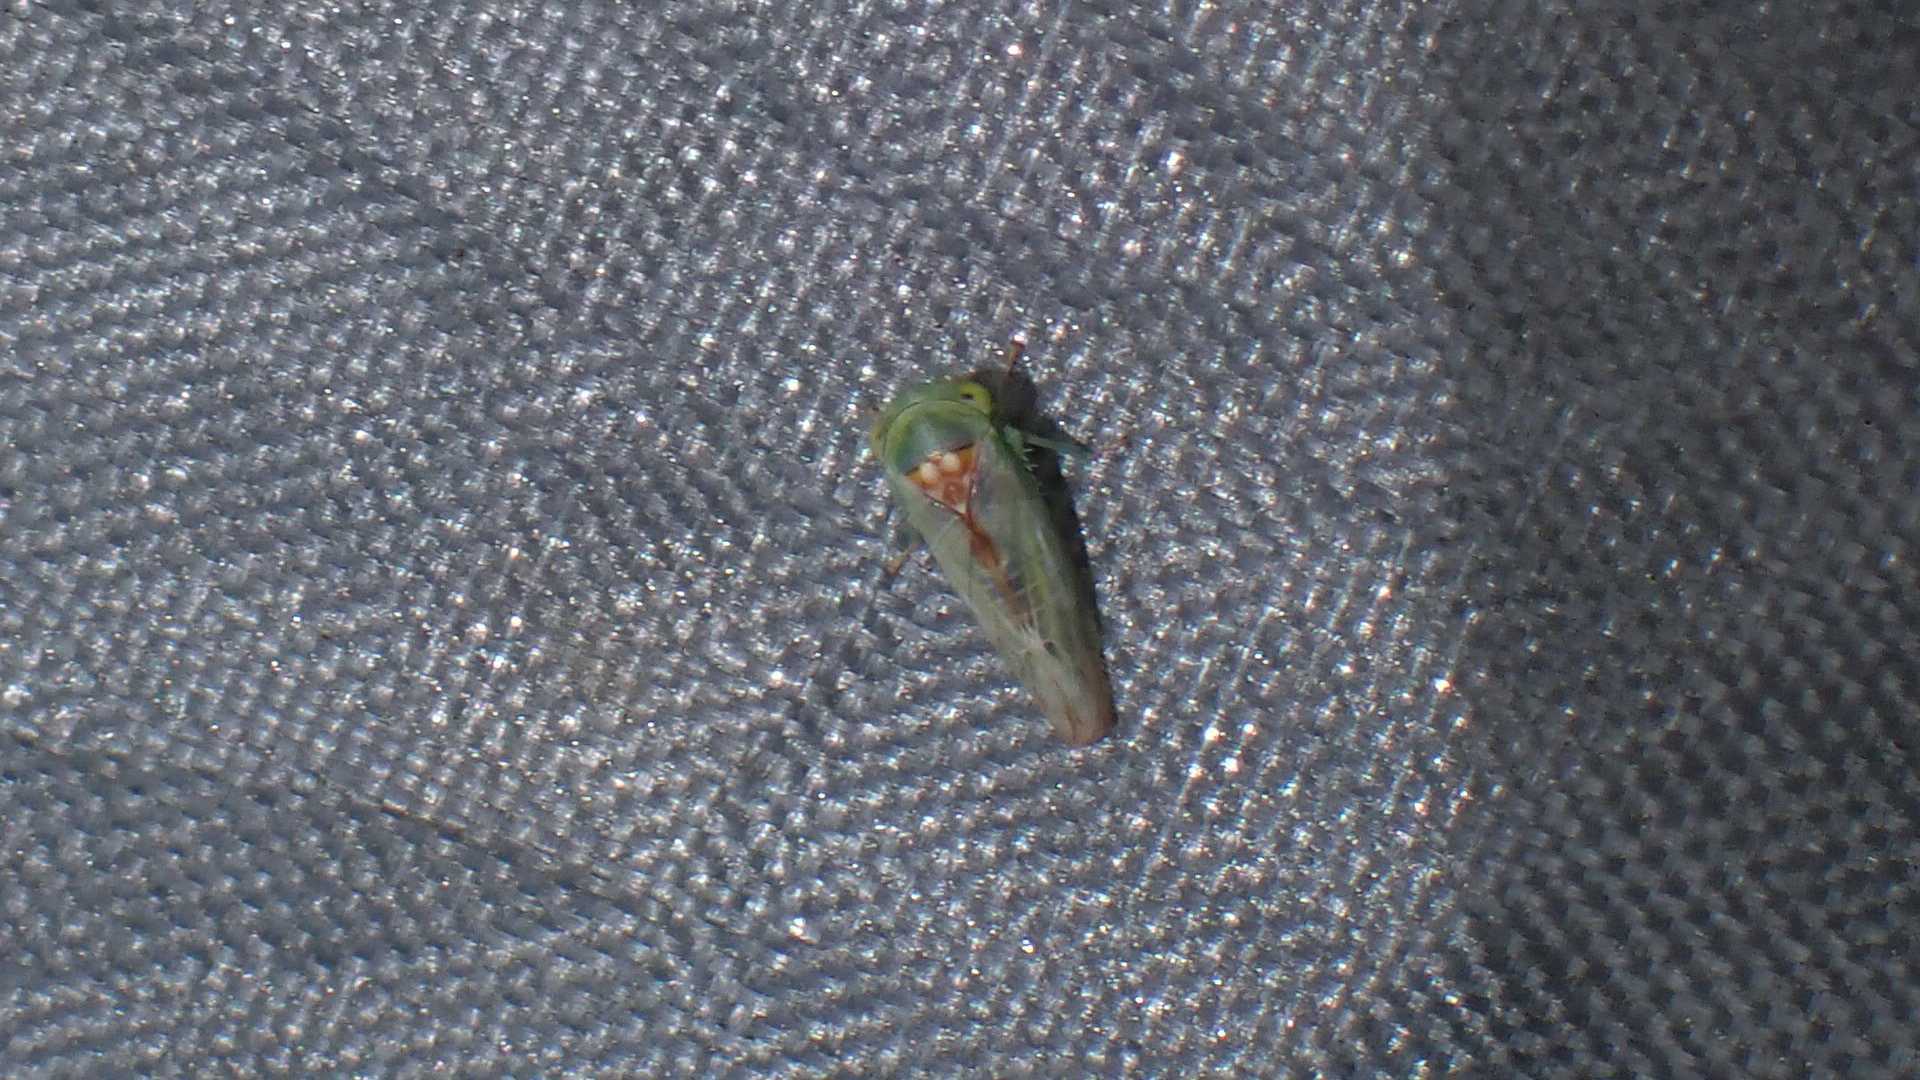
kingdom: Animalia
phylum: Arthropoda
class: Insecta
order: Hemiptera
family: Cicadellidae
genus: Viridicerus
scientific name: Viridicerus ustulatus
